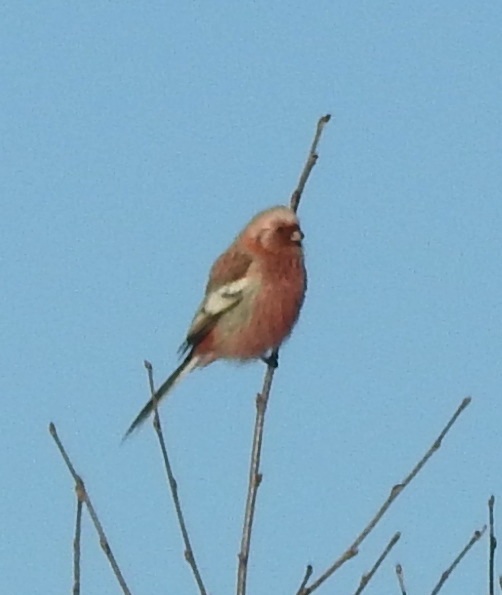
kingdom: Animalia
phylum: Chordata
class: Aves
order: Passeriformes
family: Fringillidae
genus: Carpodacus
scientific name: Carpodacus sibiricus
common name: Long-tailed rosefinch
